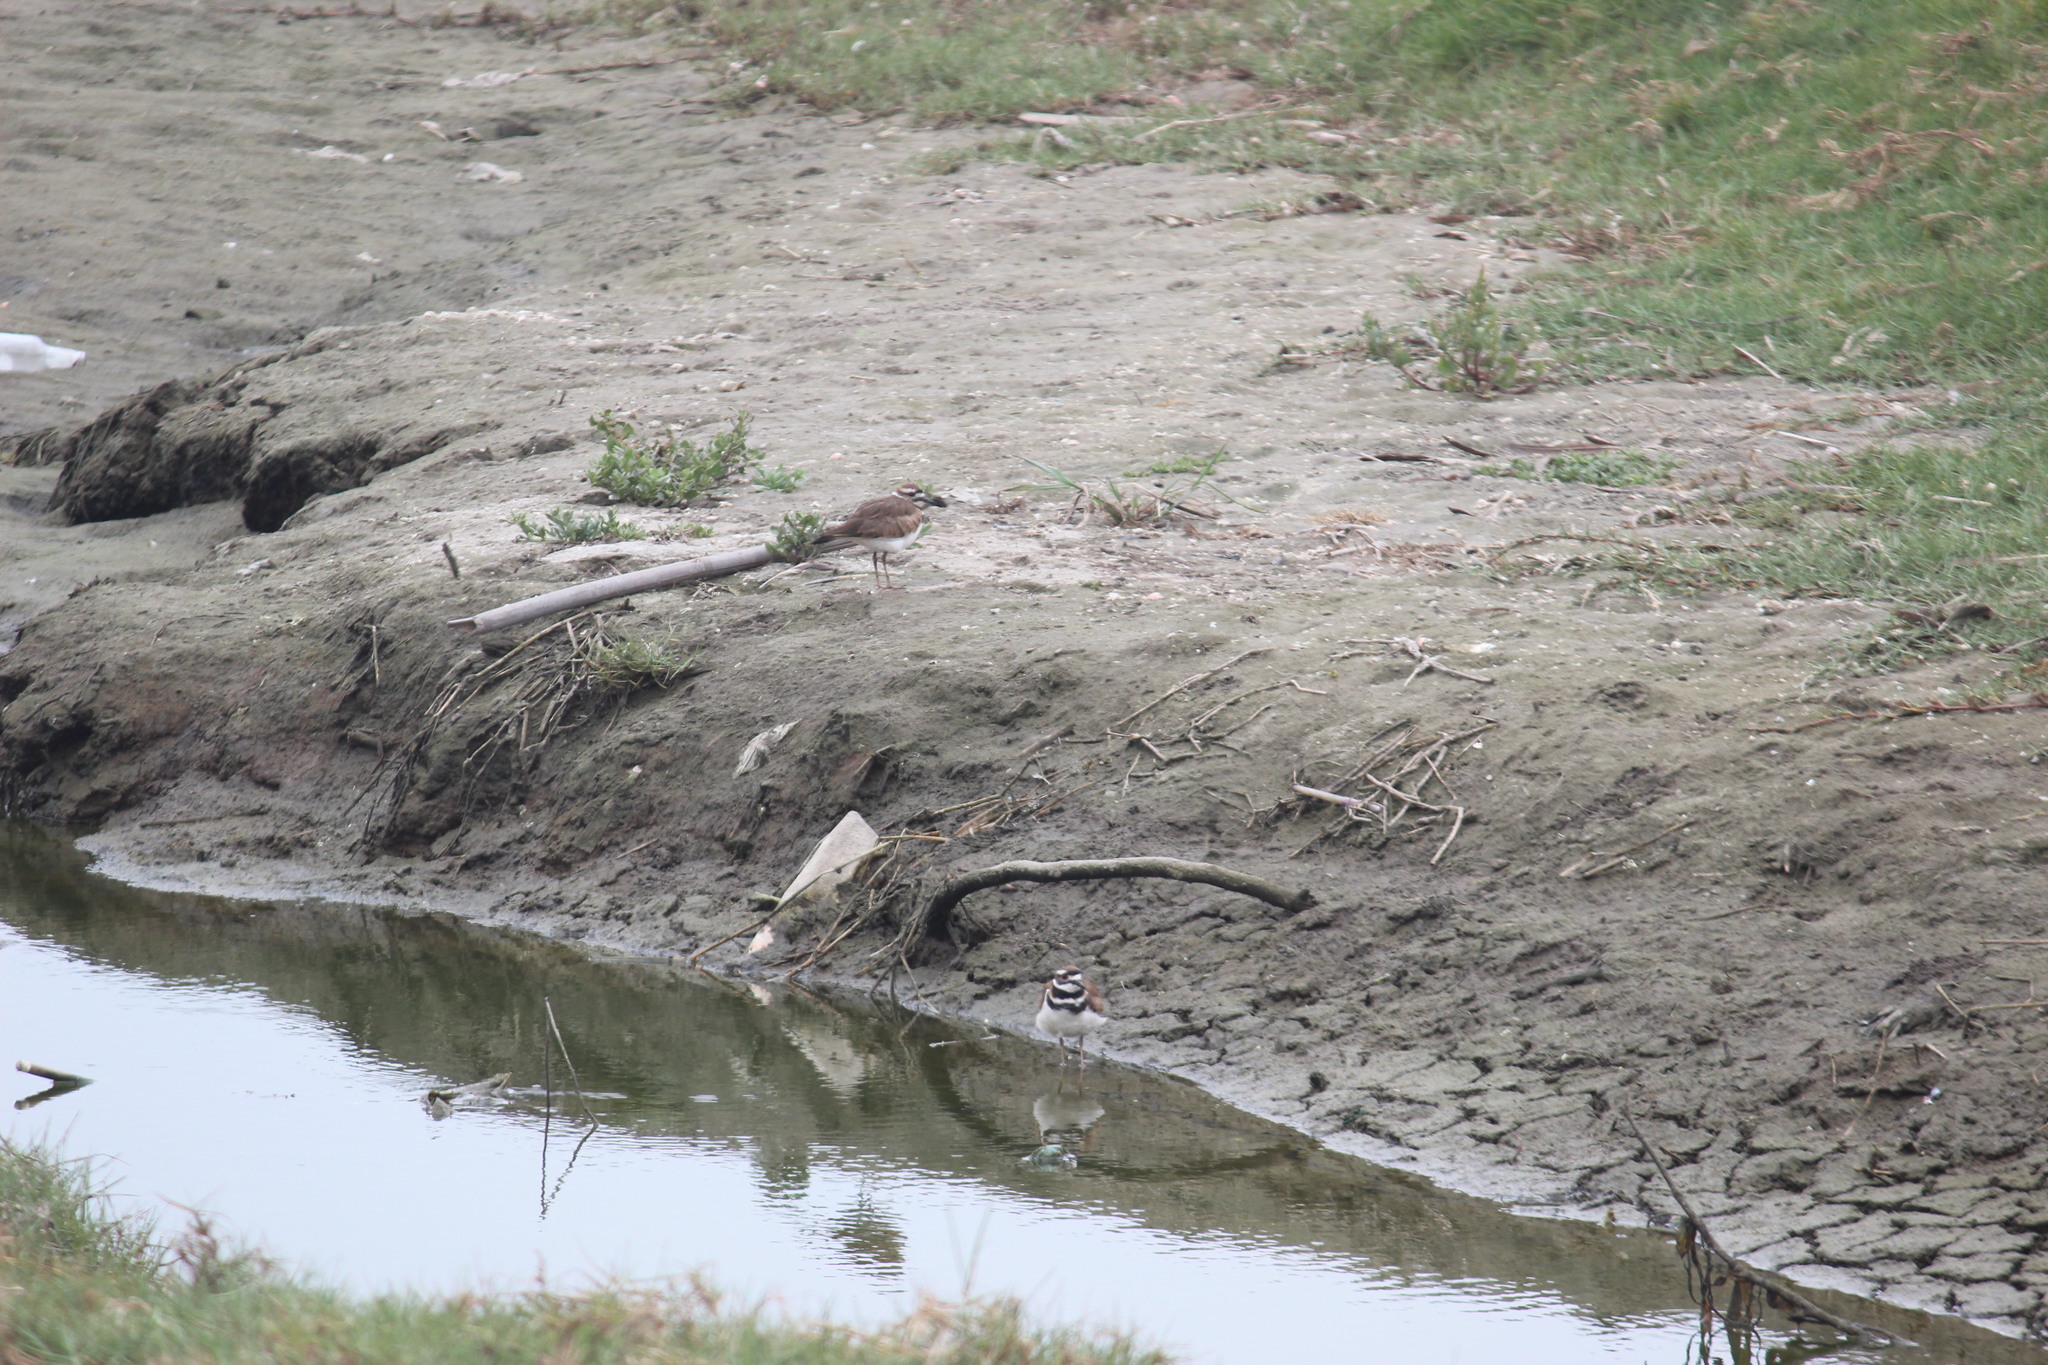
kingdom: Animalia
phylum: Chordata
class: Aves
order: Charadriiformes
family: Charadriidae
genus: Charadrius
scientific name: Charadrius vociferus
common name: Killdeer
